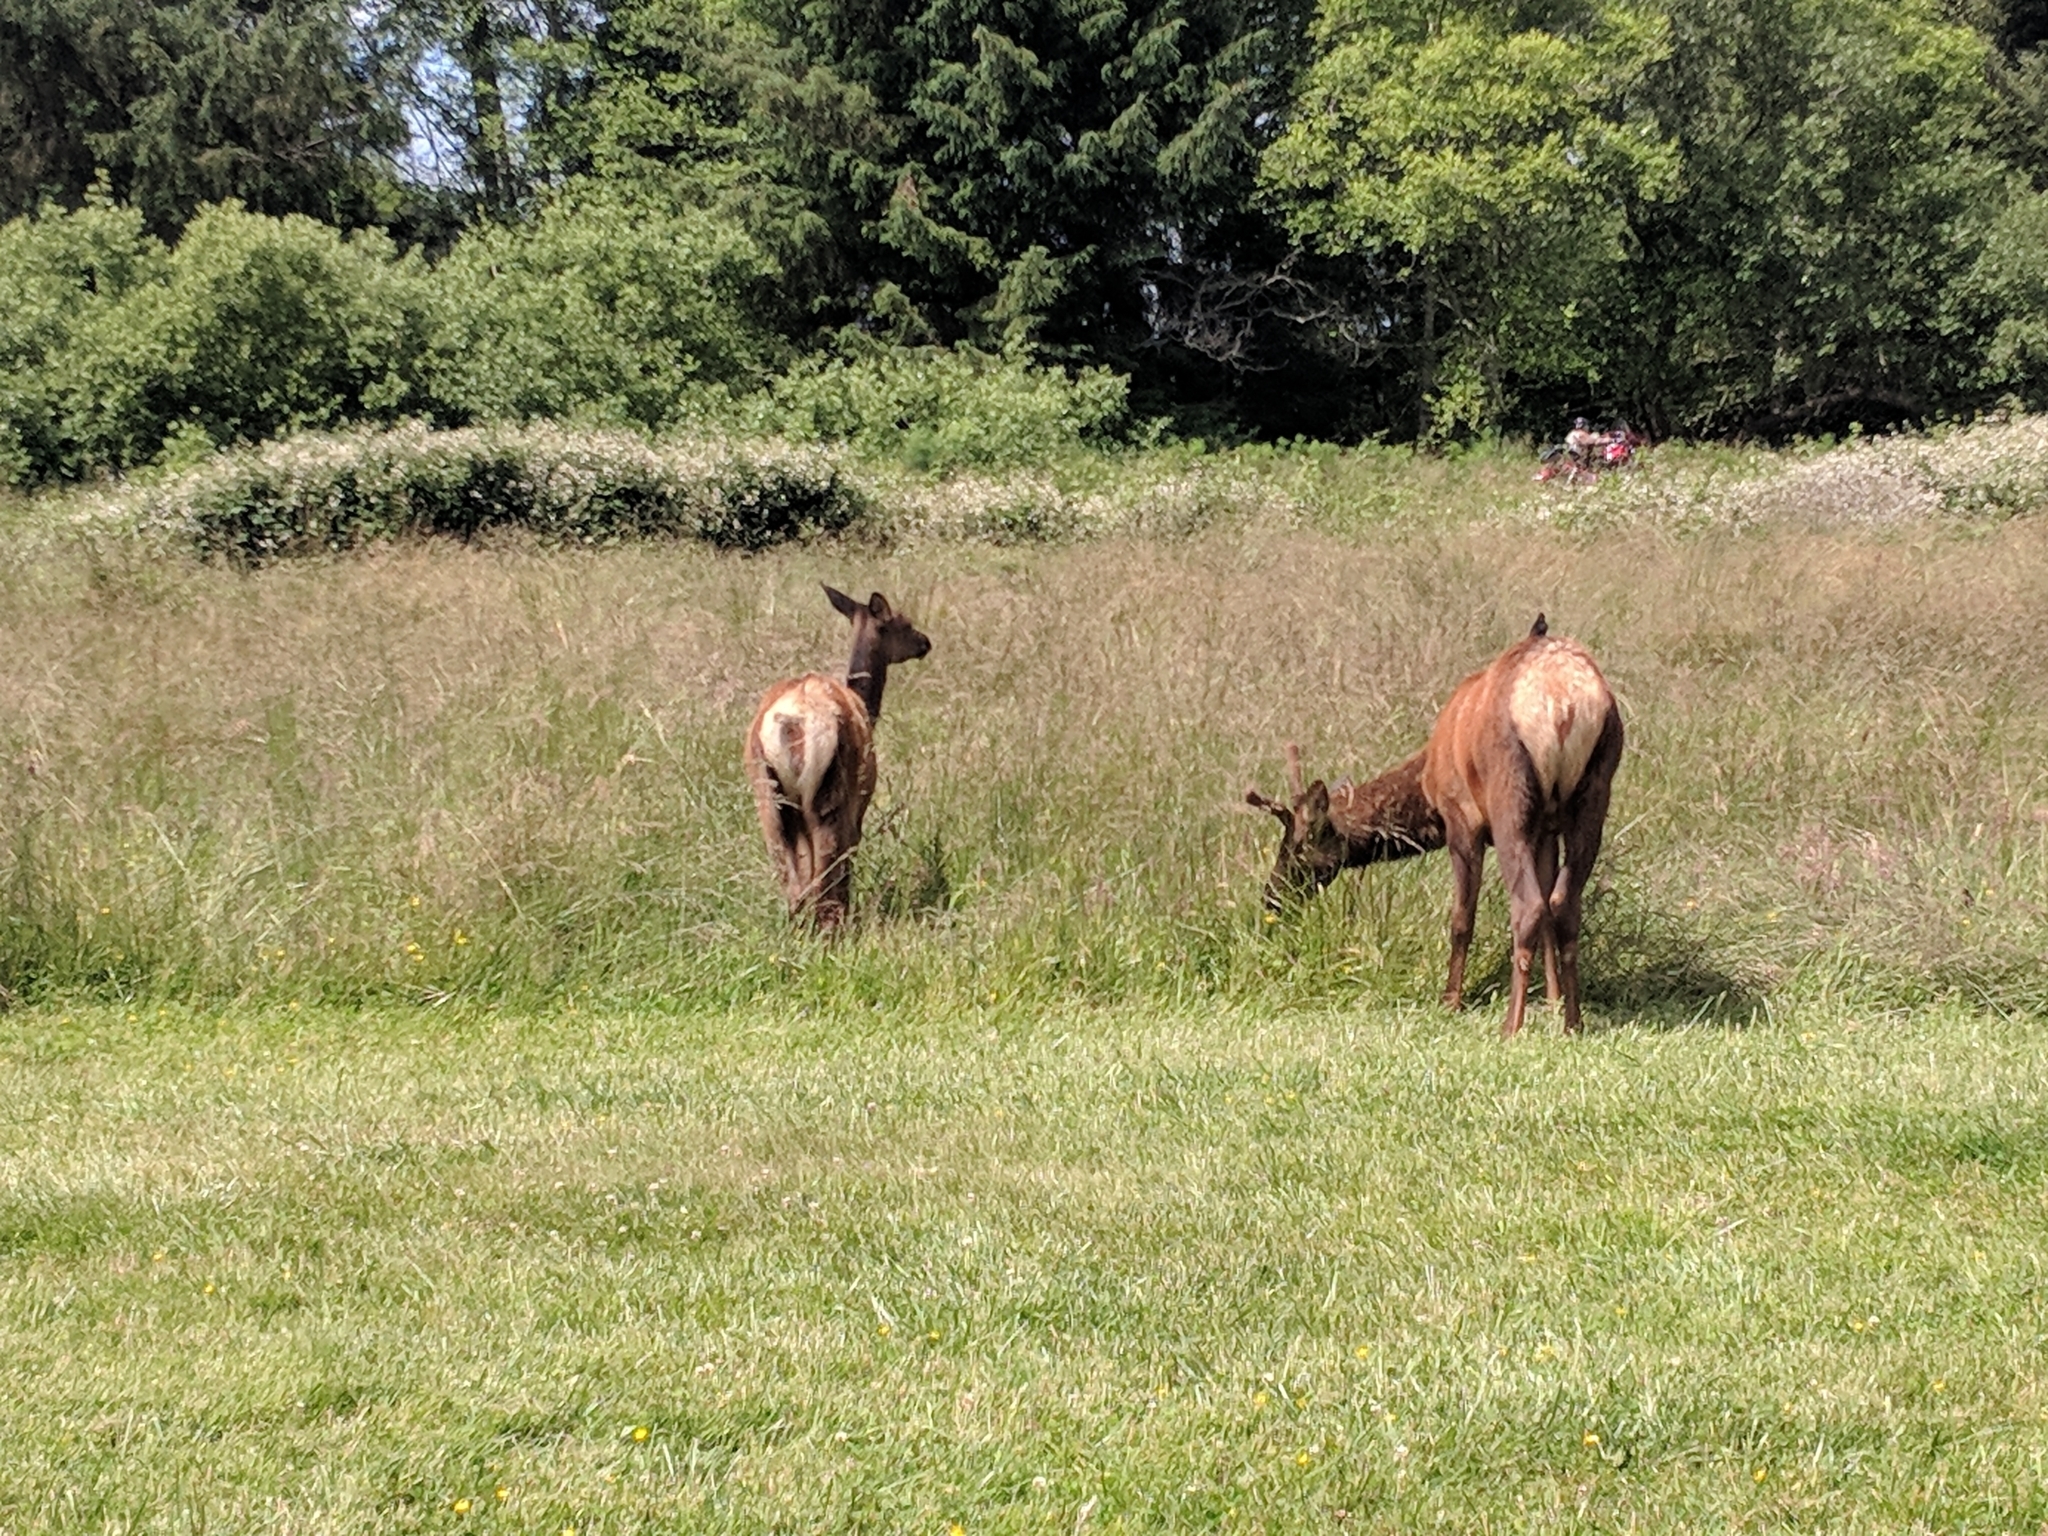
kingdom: Animalia
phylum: Chordata
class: Mammalia
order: Artiodactyla
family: Cervidae
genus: Cervus
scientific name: Cervus elaphus
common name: Red deer
